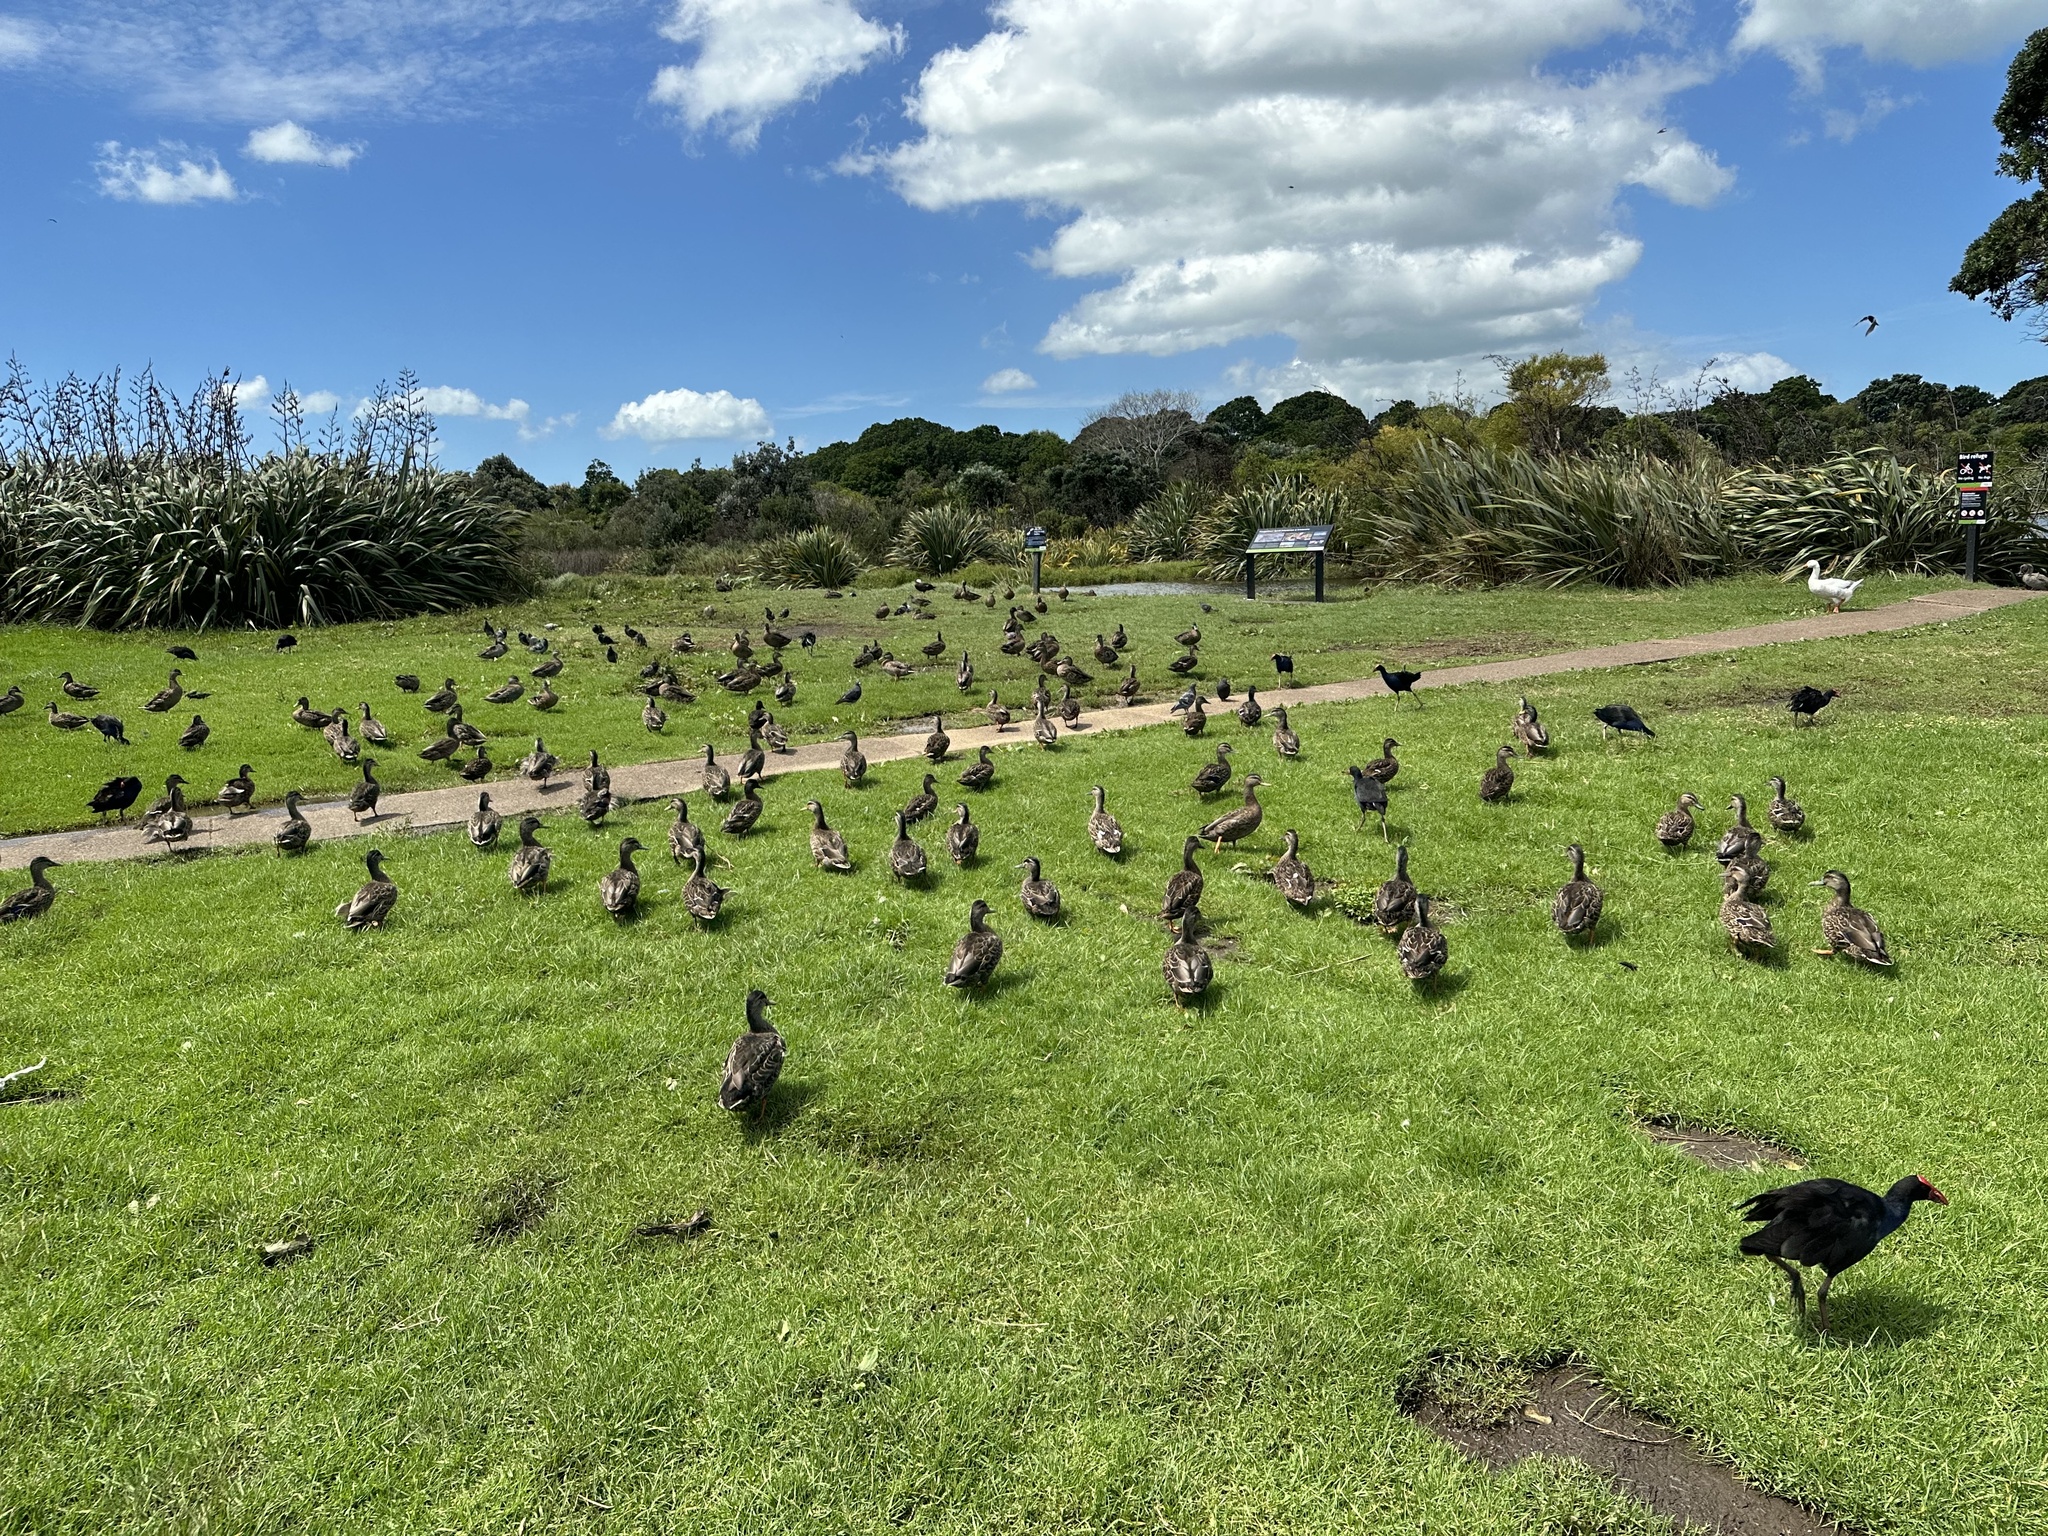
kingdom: Animalia
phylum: Chordata
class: Aves
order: Anseriformes
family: Anatidae
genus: Anas
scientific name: Anas
